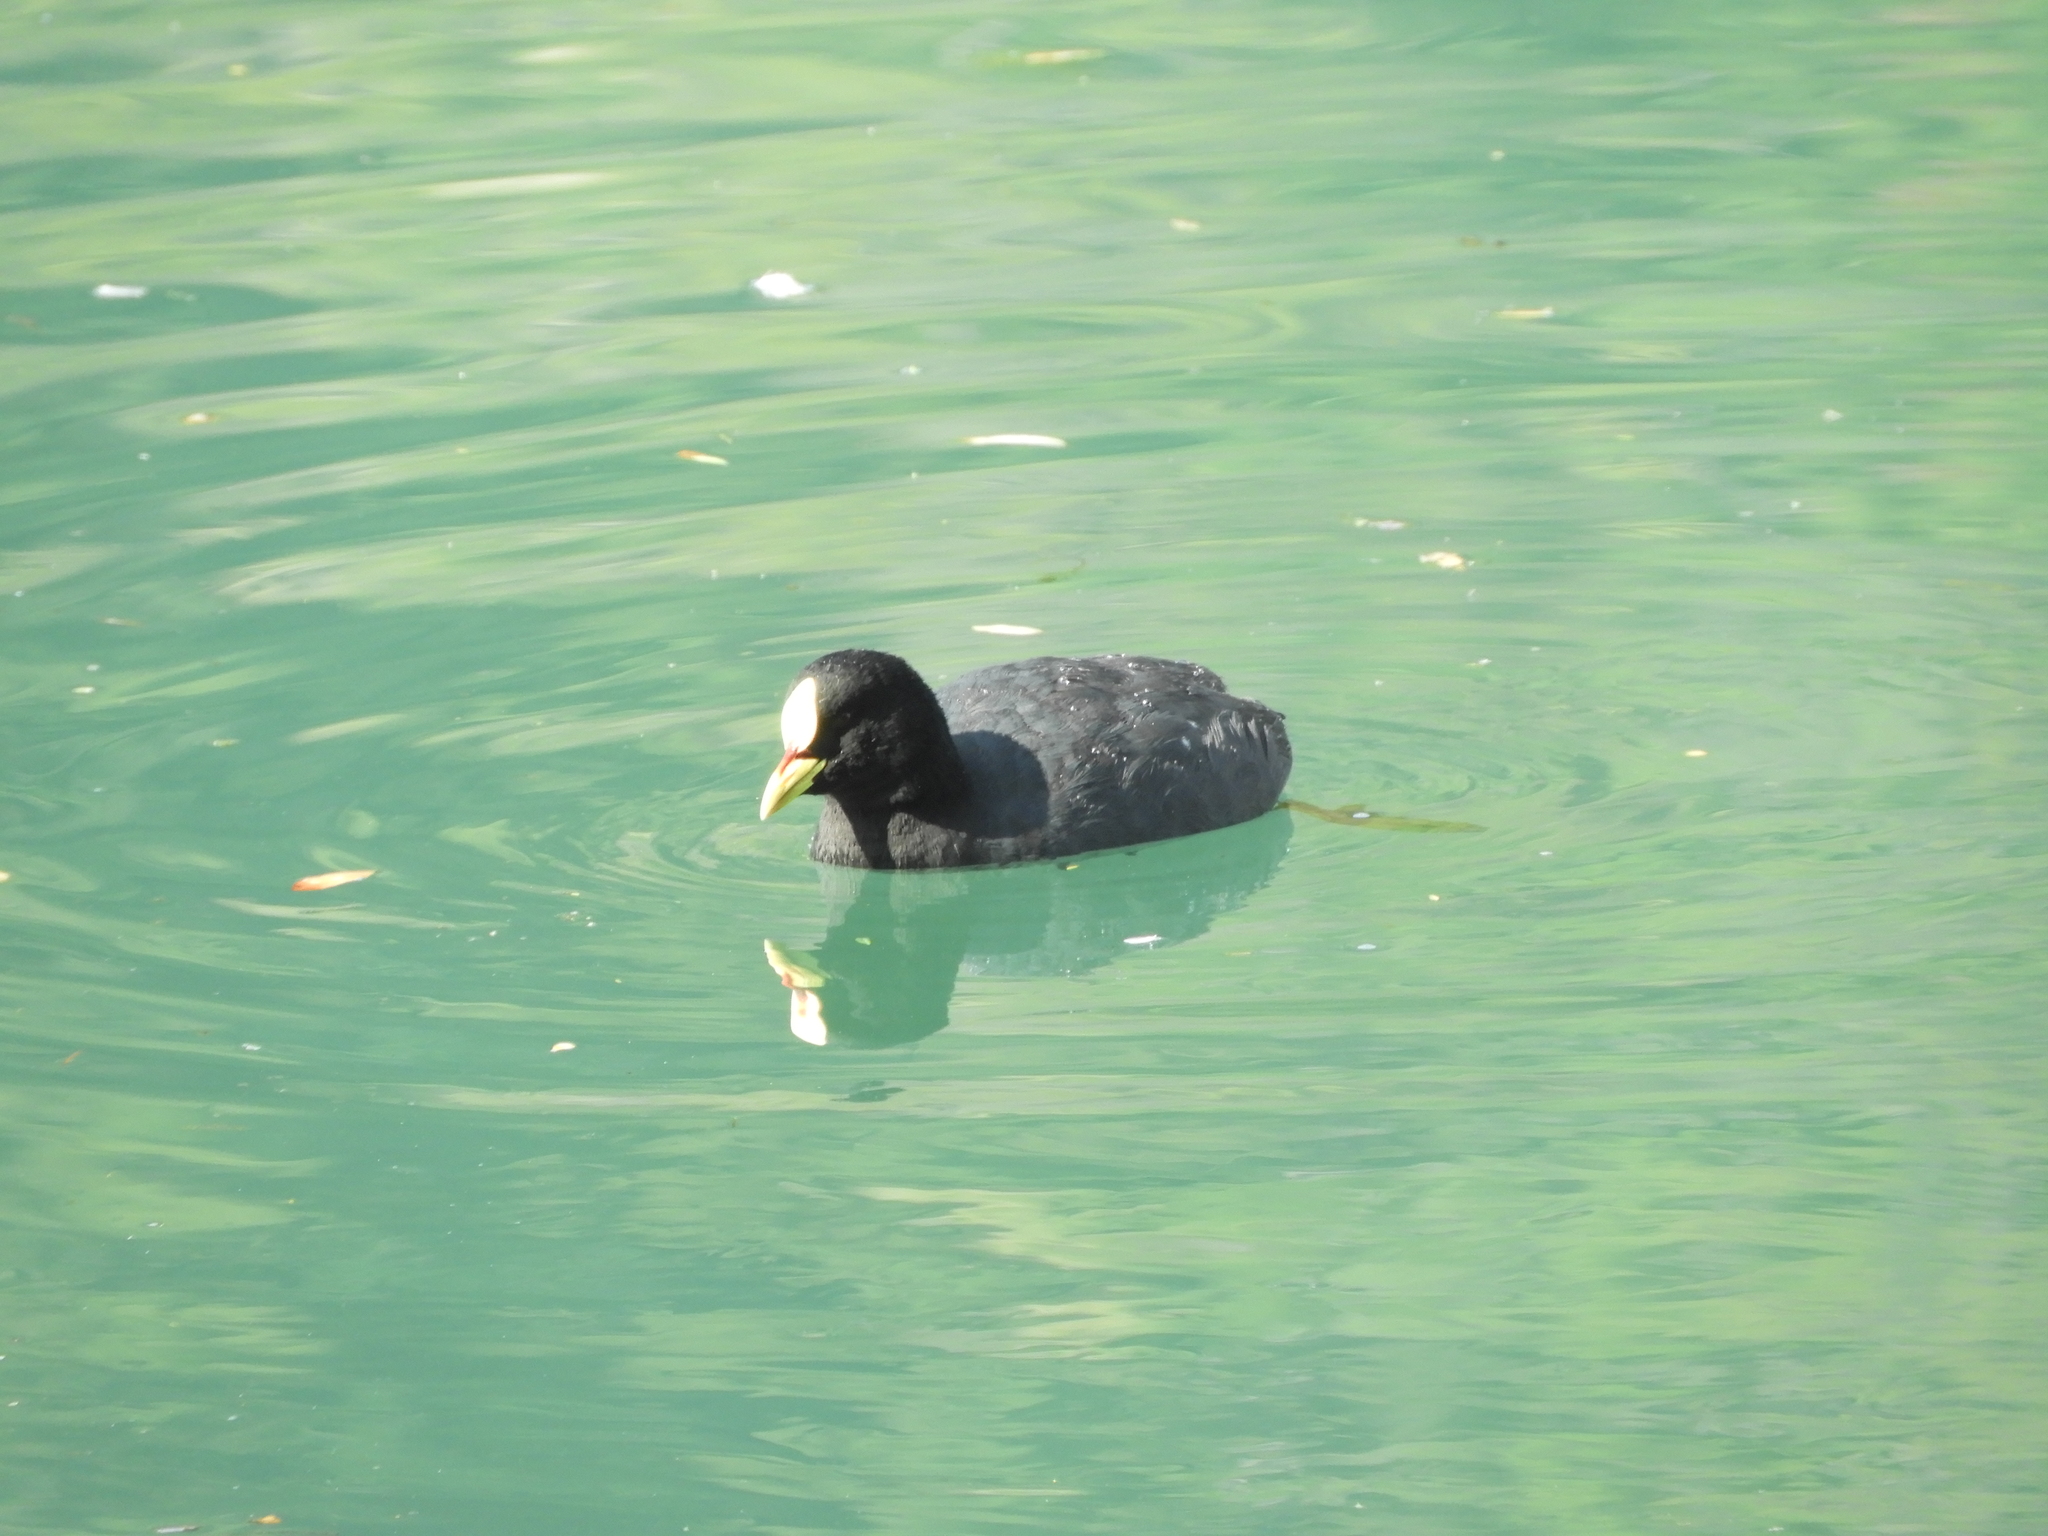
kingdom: Animalia
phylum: Chordata
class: Aves
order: Gruiformes
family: Rallidae
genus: Fulica
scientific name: Fulica armillata
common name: Red-gartered coot
